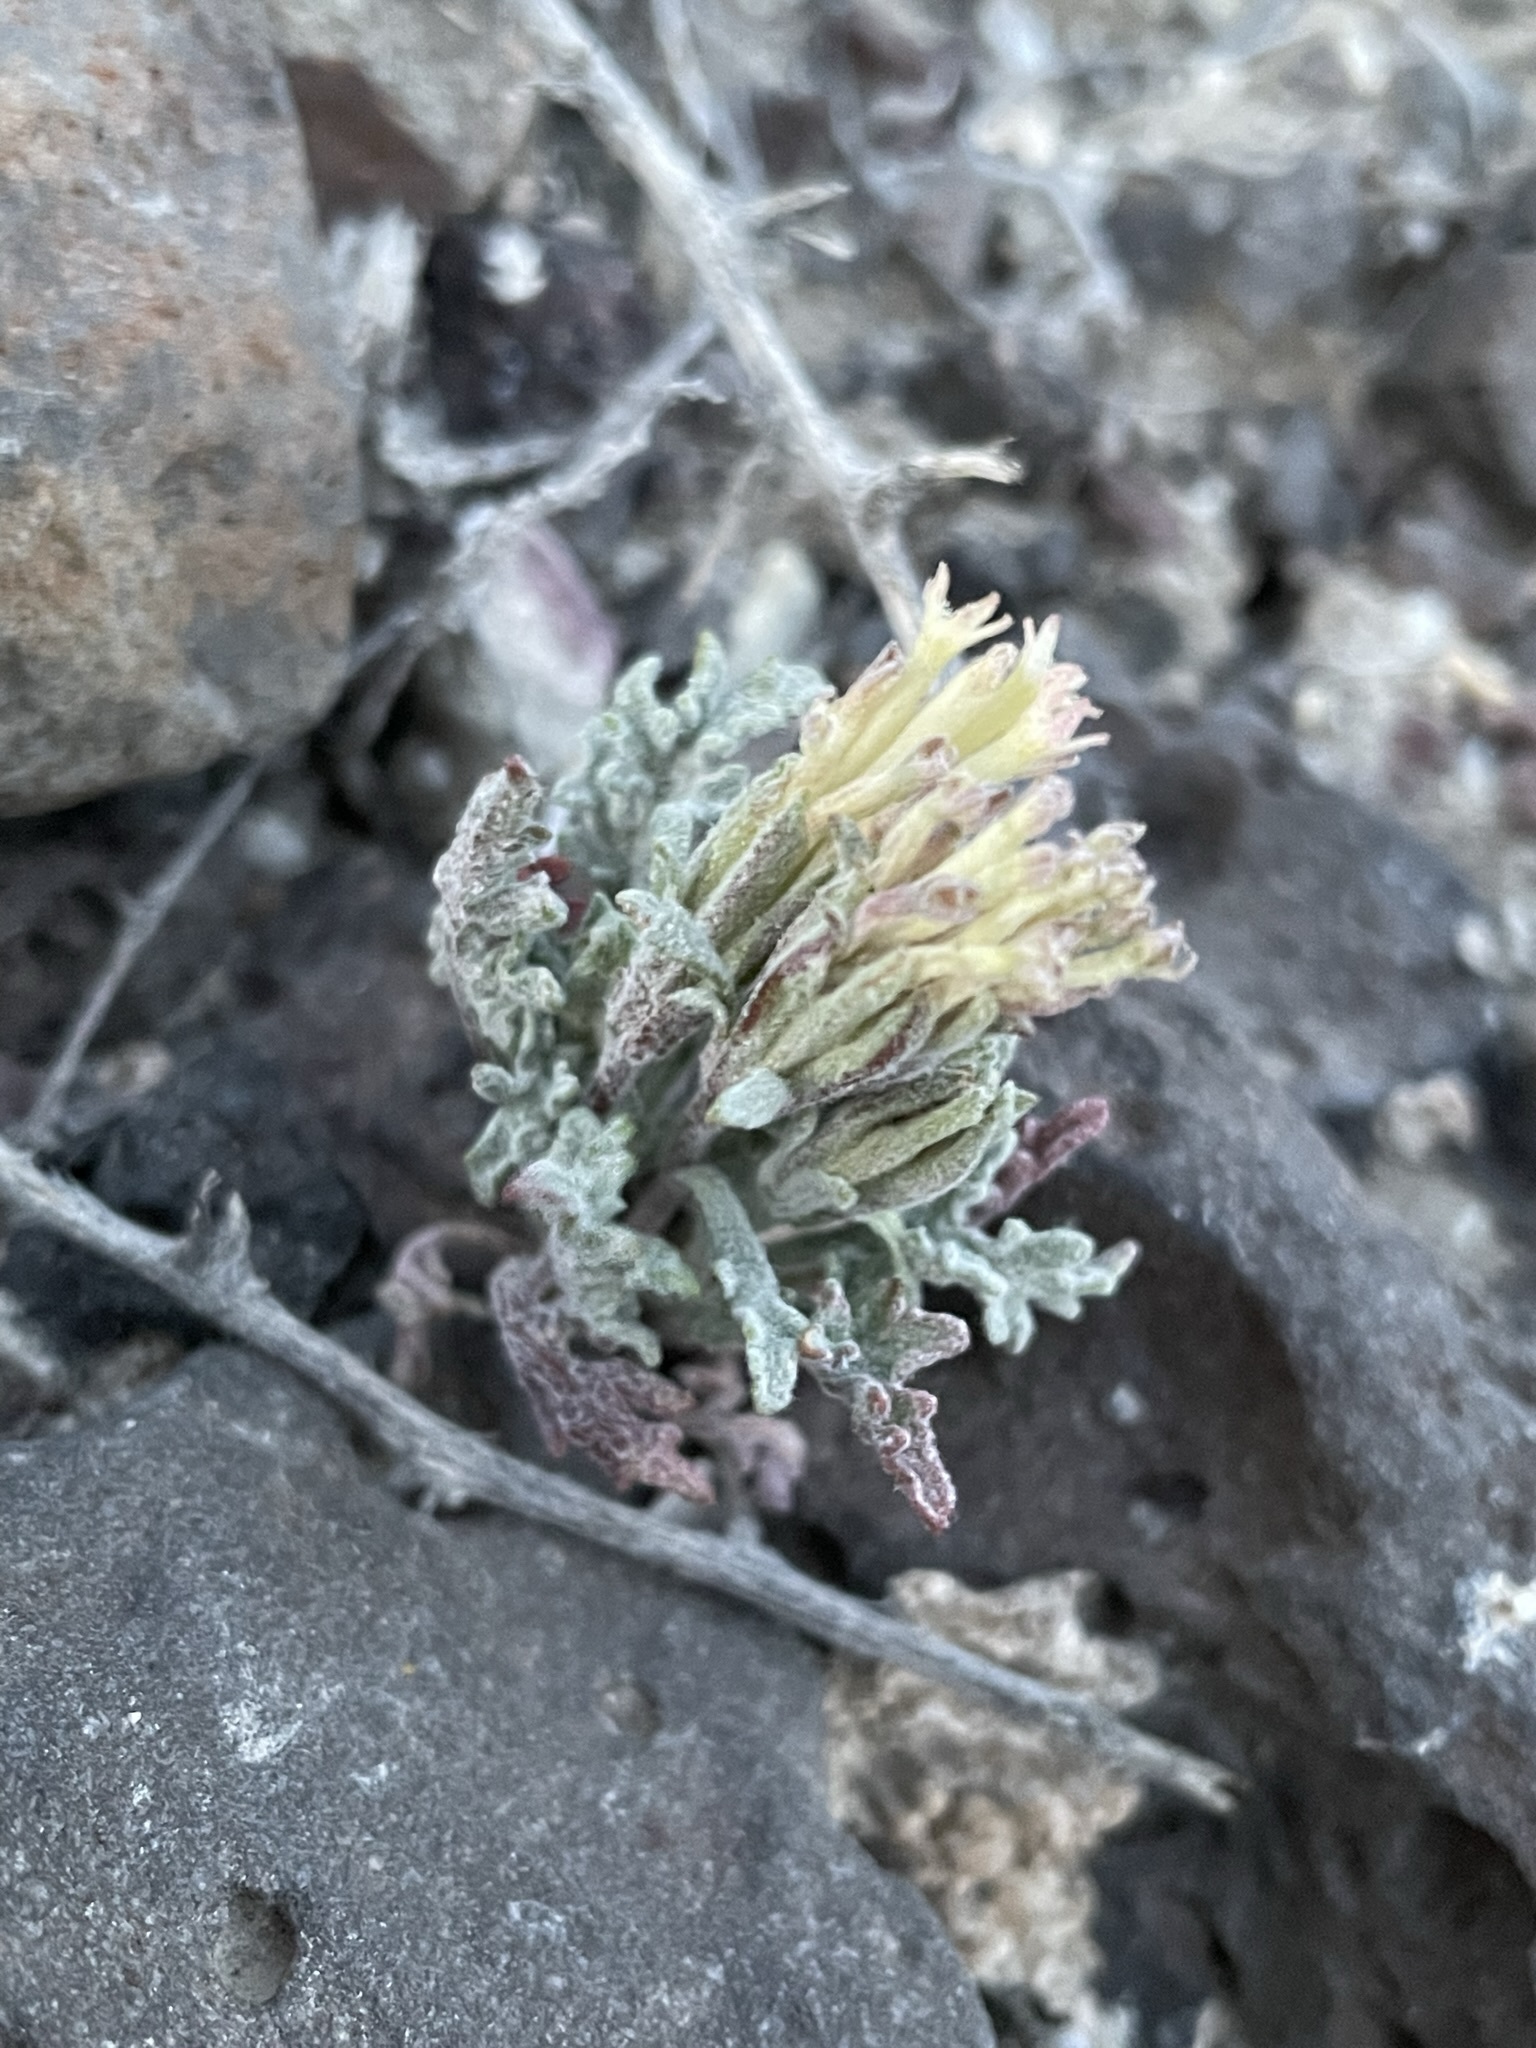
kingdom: Plantae
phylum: Tracheophyta
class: Magnoliopsida
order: Asterales
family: Asteraceae
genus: Chaenactis
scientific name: Chaenactis macrantha
